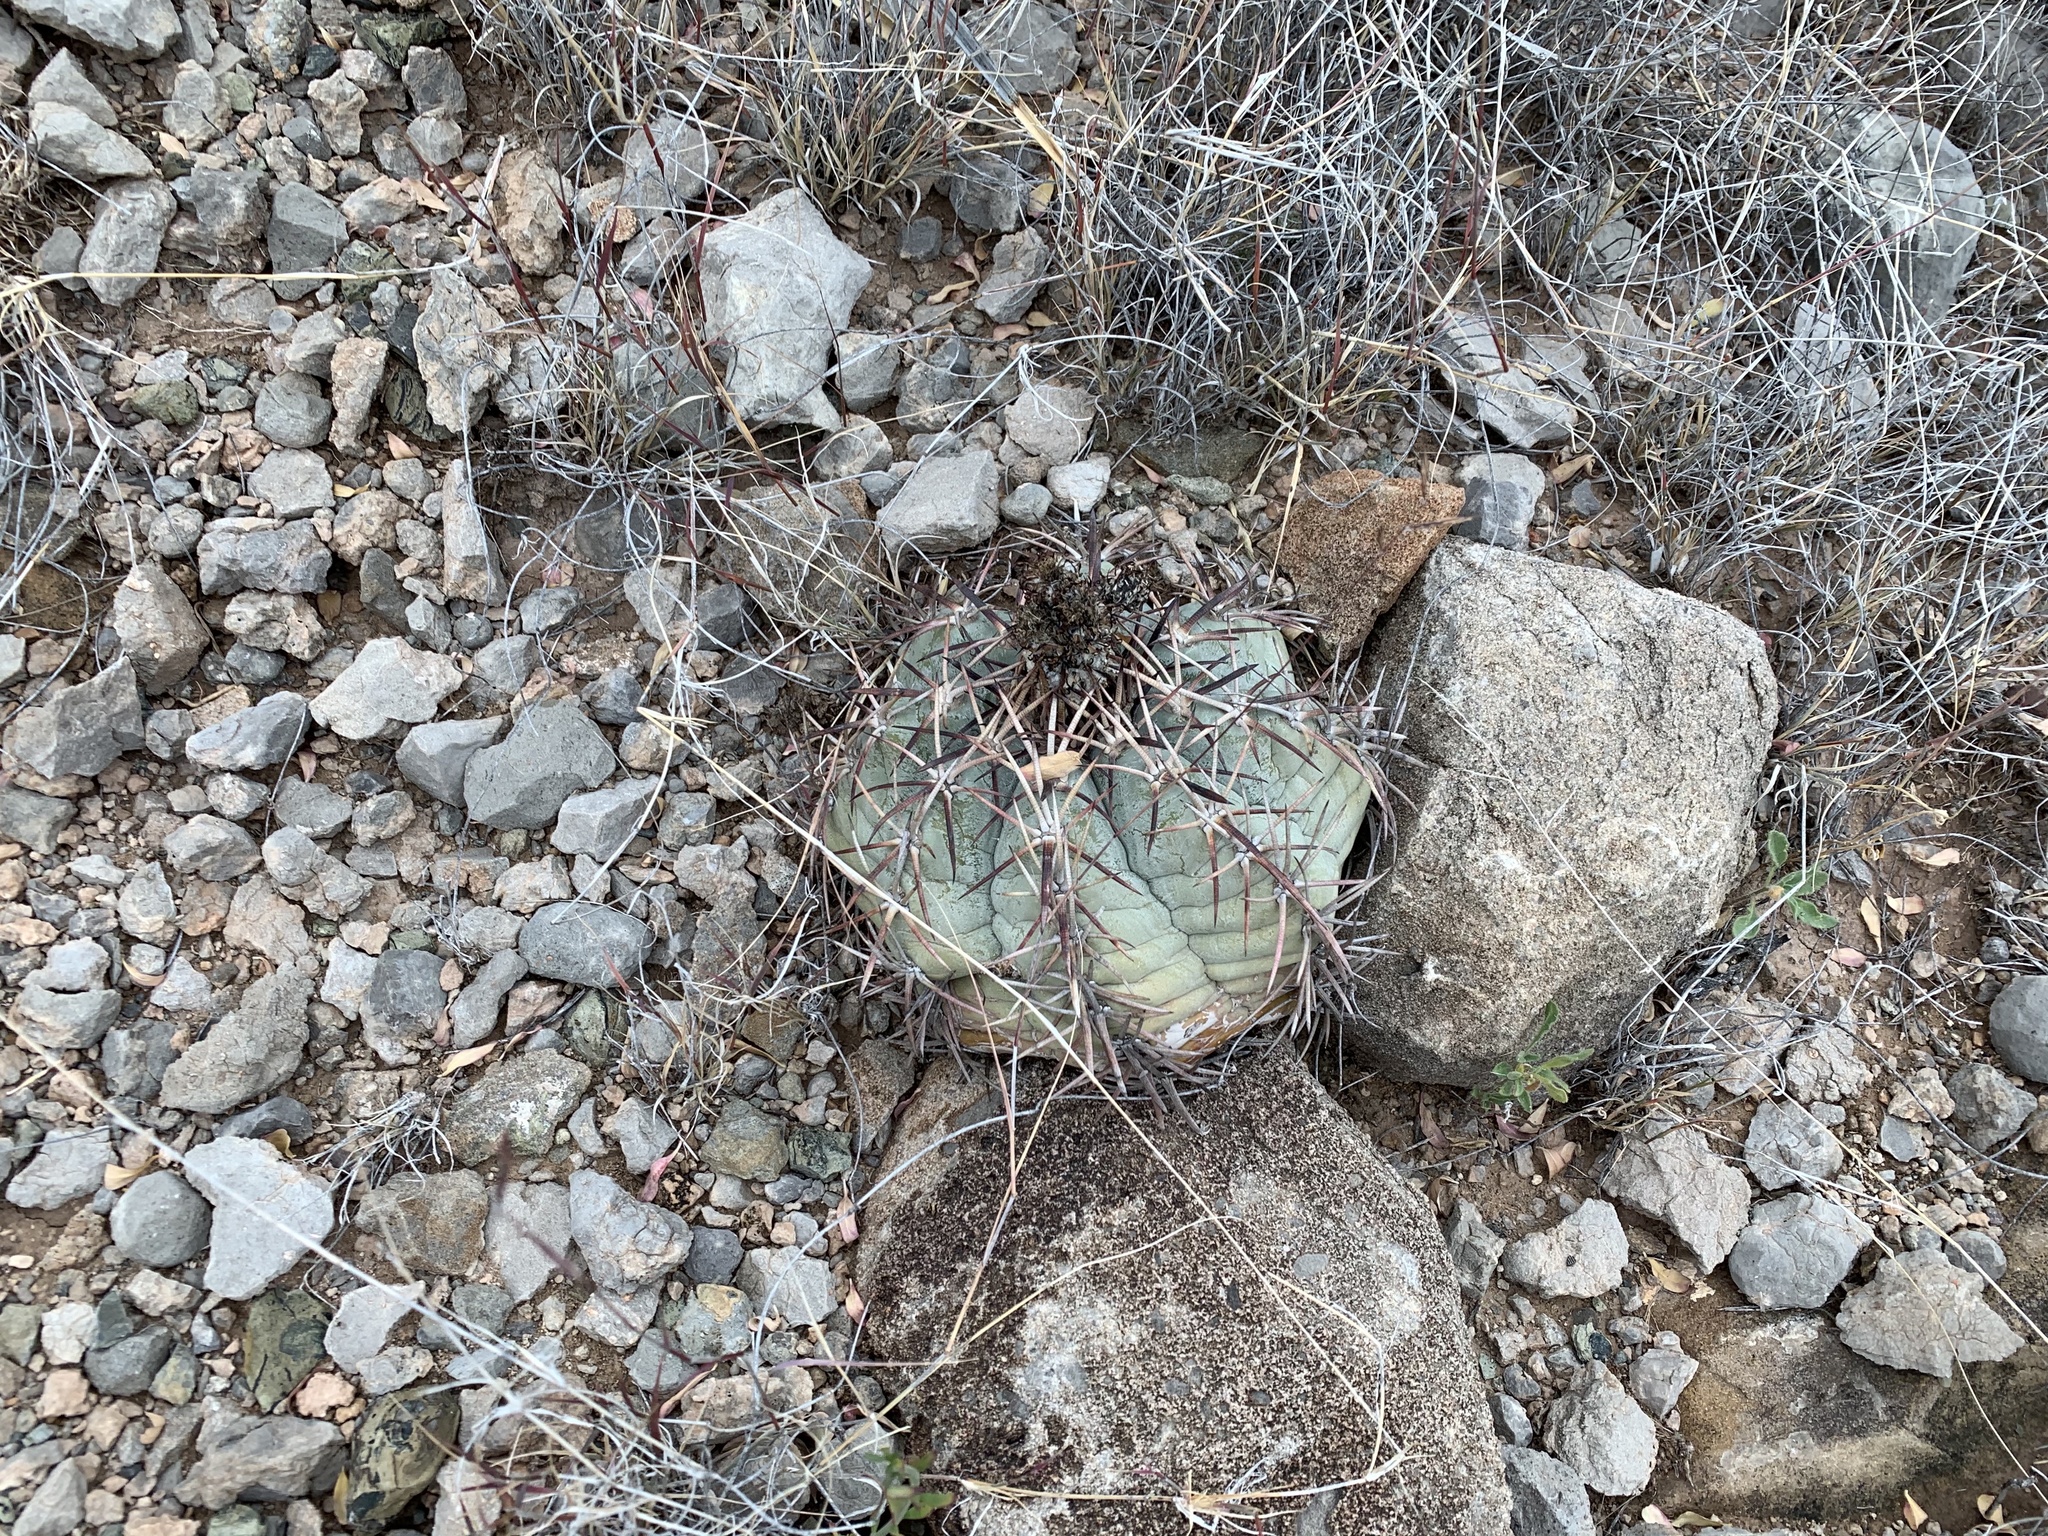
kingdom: Plantae
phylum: Tracheophyta
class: Magnoliopsida
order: Caryophyllales
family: Cactaceae
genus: Echinocactus
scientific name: Echinocactus horizonthalonius
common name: Devilshead
